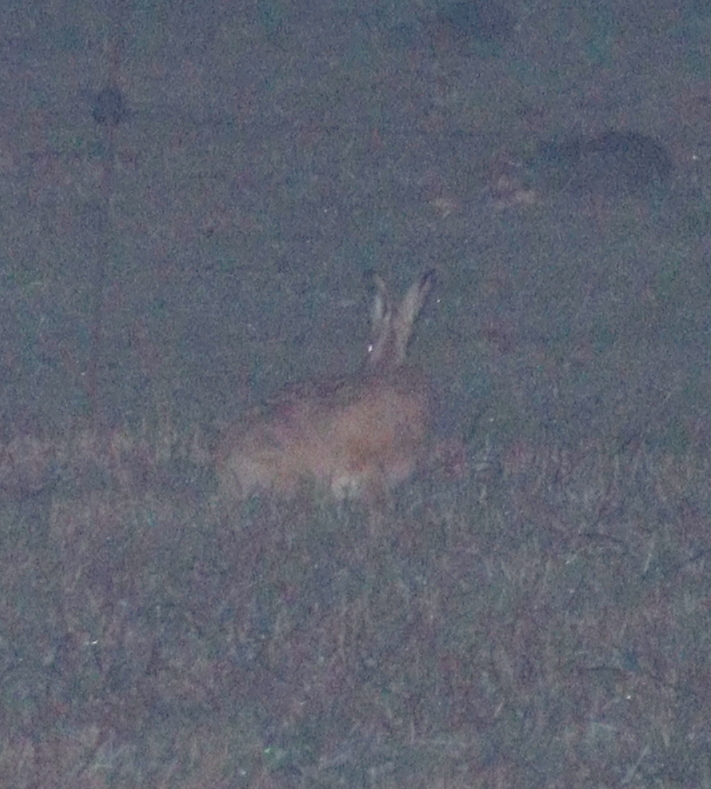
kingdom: Animalia
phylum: Chordata
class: Mammalia
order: Lagomorpha
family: Leporidae
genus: Lepus
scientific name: Lepus europaeus
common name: European hare
